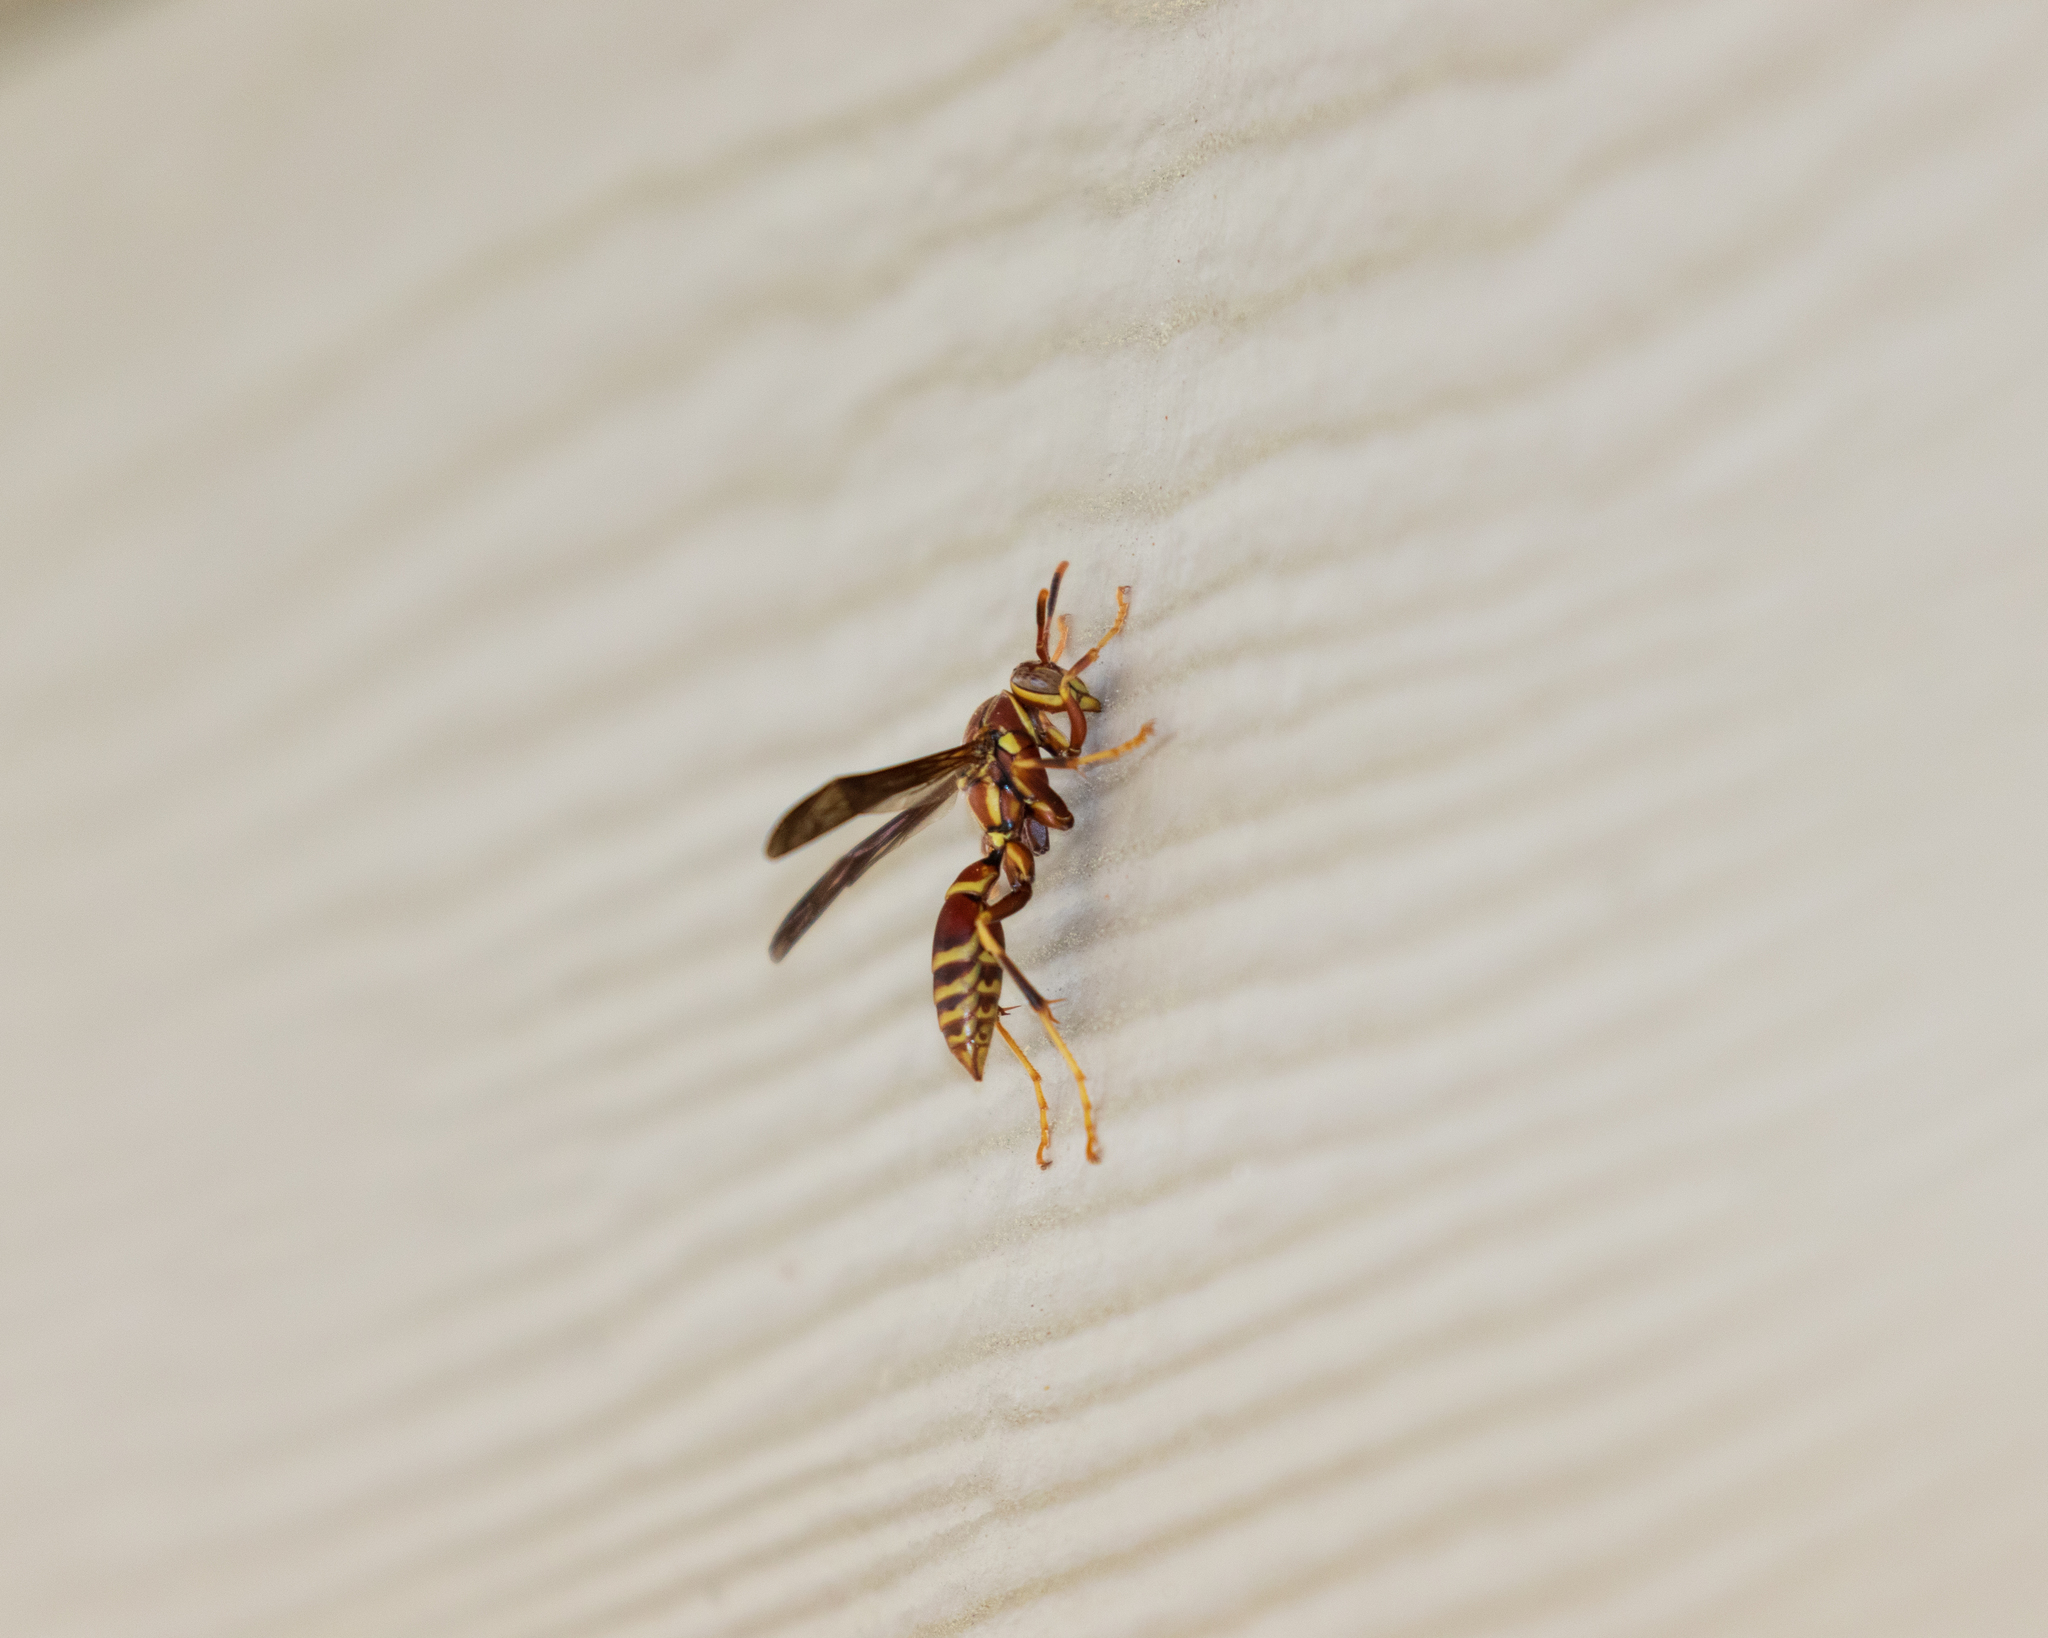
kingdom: Animalia
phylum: Arthropoda
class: Insecta
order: Hymenoptera
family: Eumenidae
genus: Polistes
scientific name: Polistes exclamans
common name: Paper wasp
